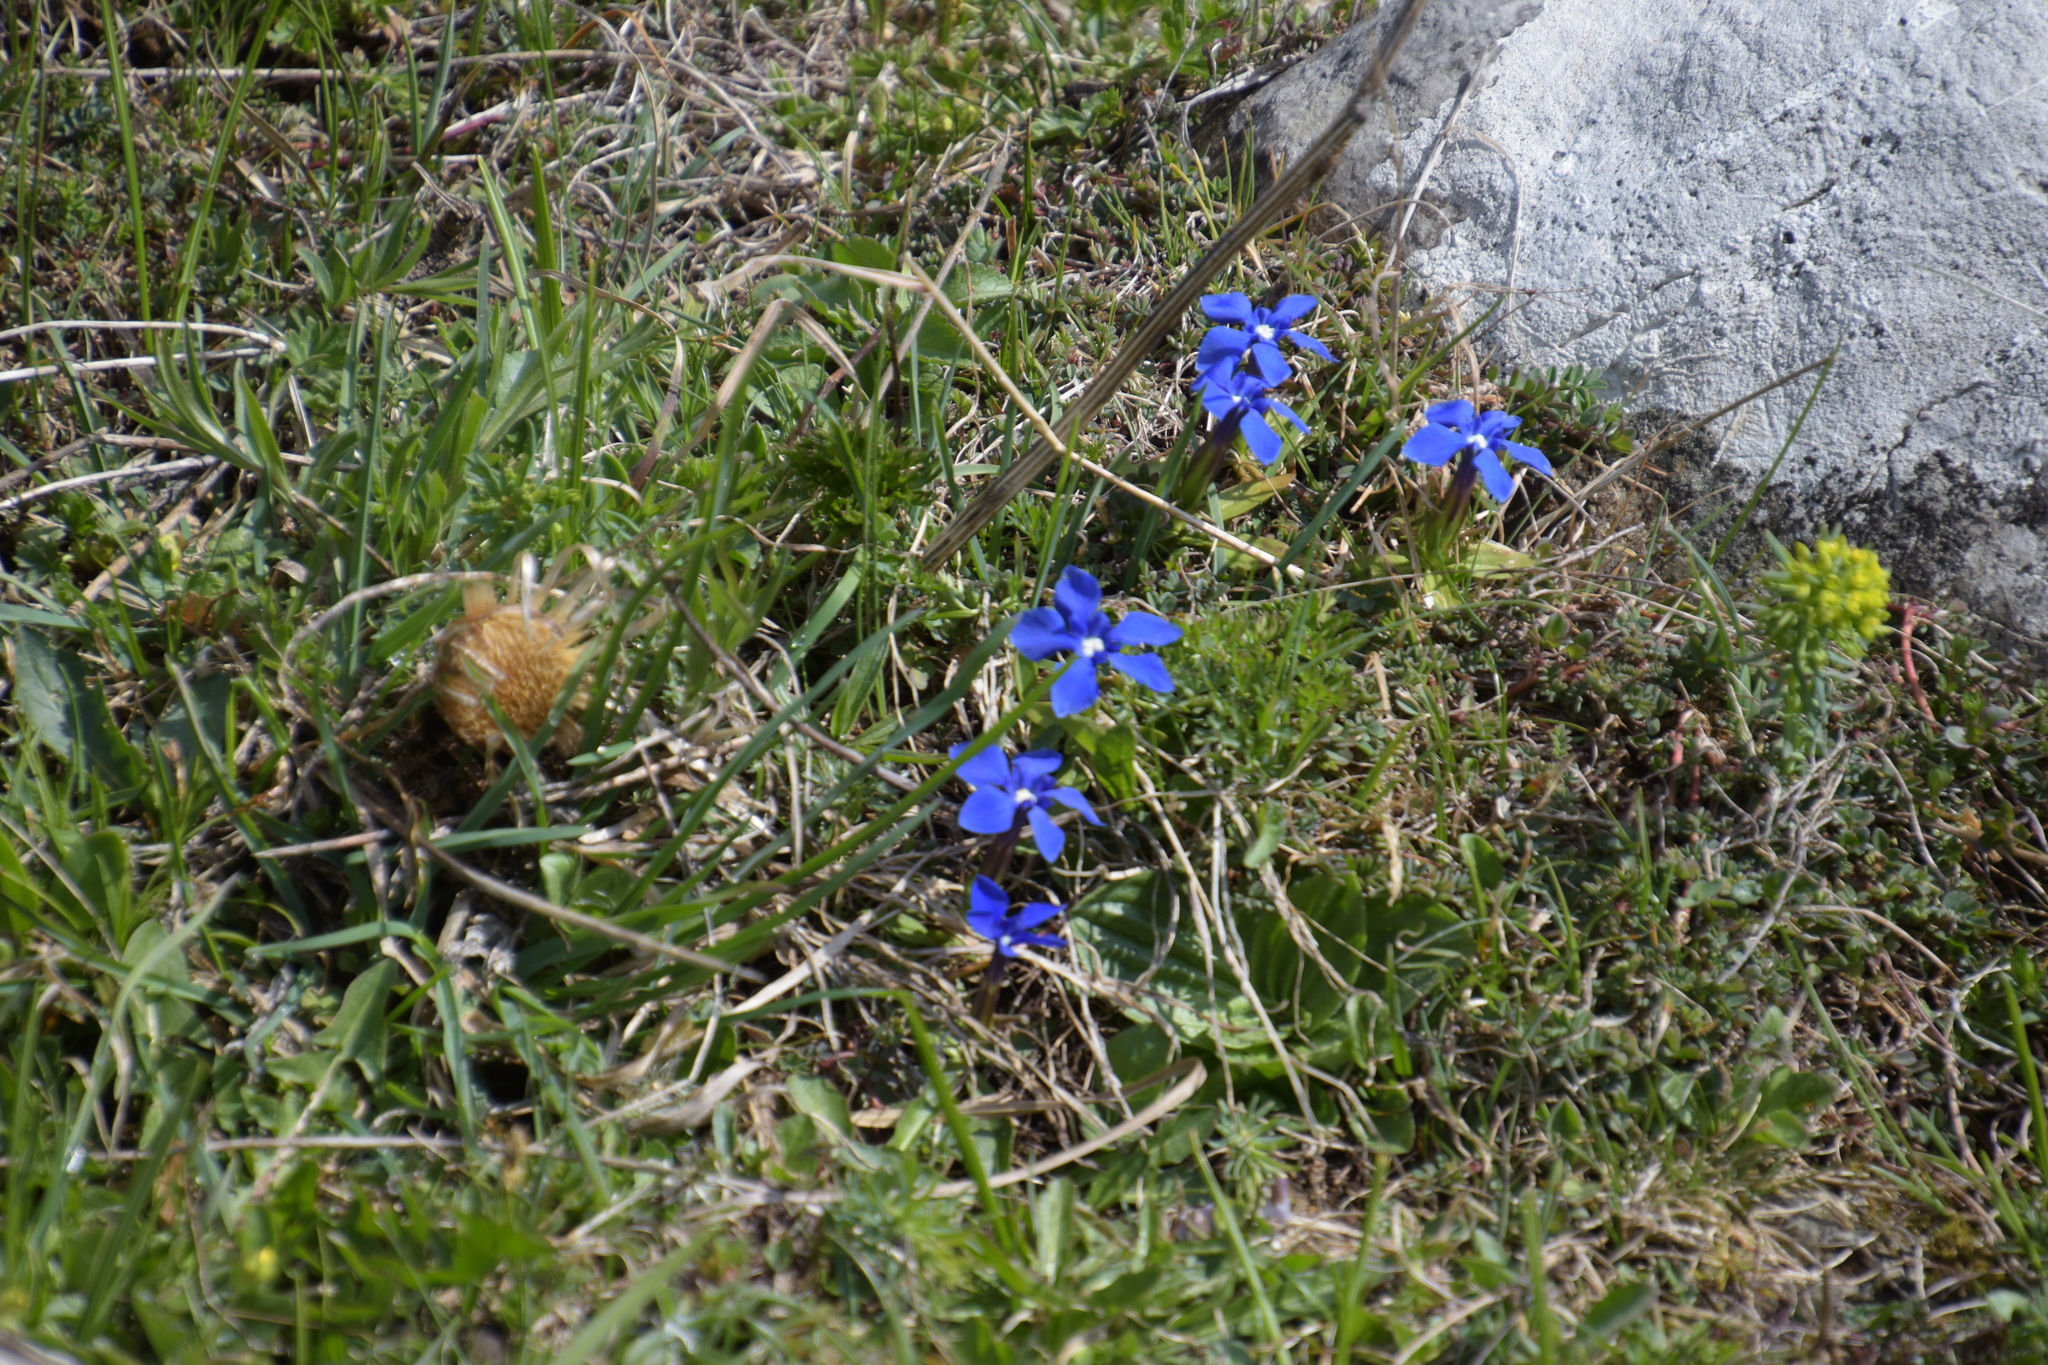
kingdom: Plantae
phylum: Tracheophyta
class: Magnoliopsida
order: Gentianales
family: Gentianaceae
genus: Gentiana
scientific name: Gentiana verna
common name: Spring gentian
